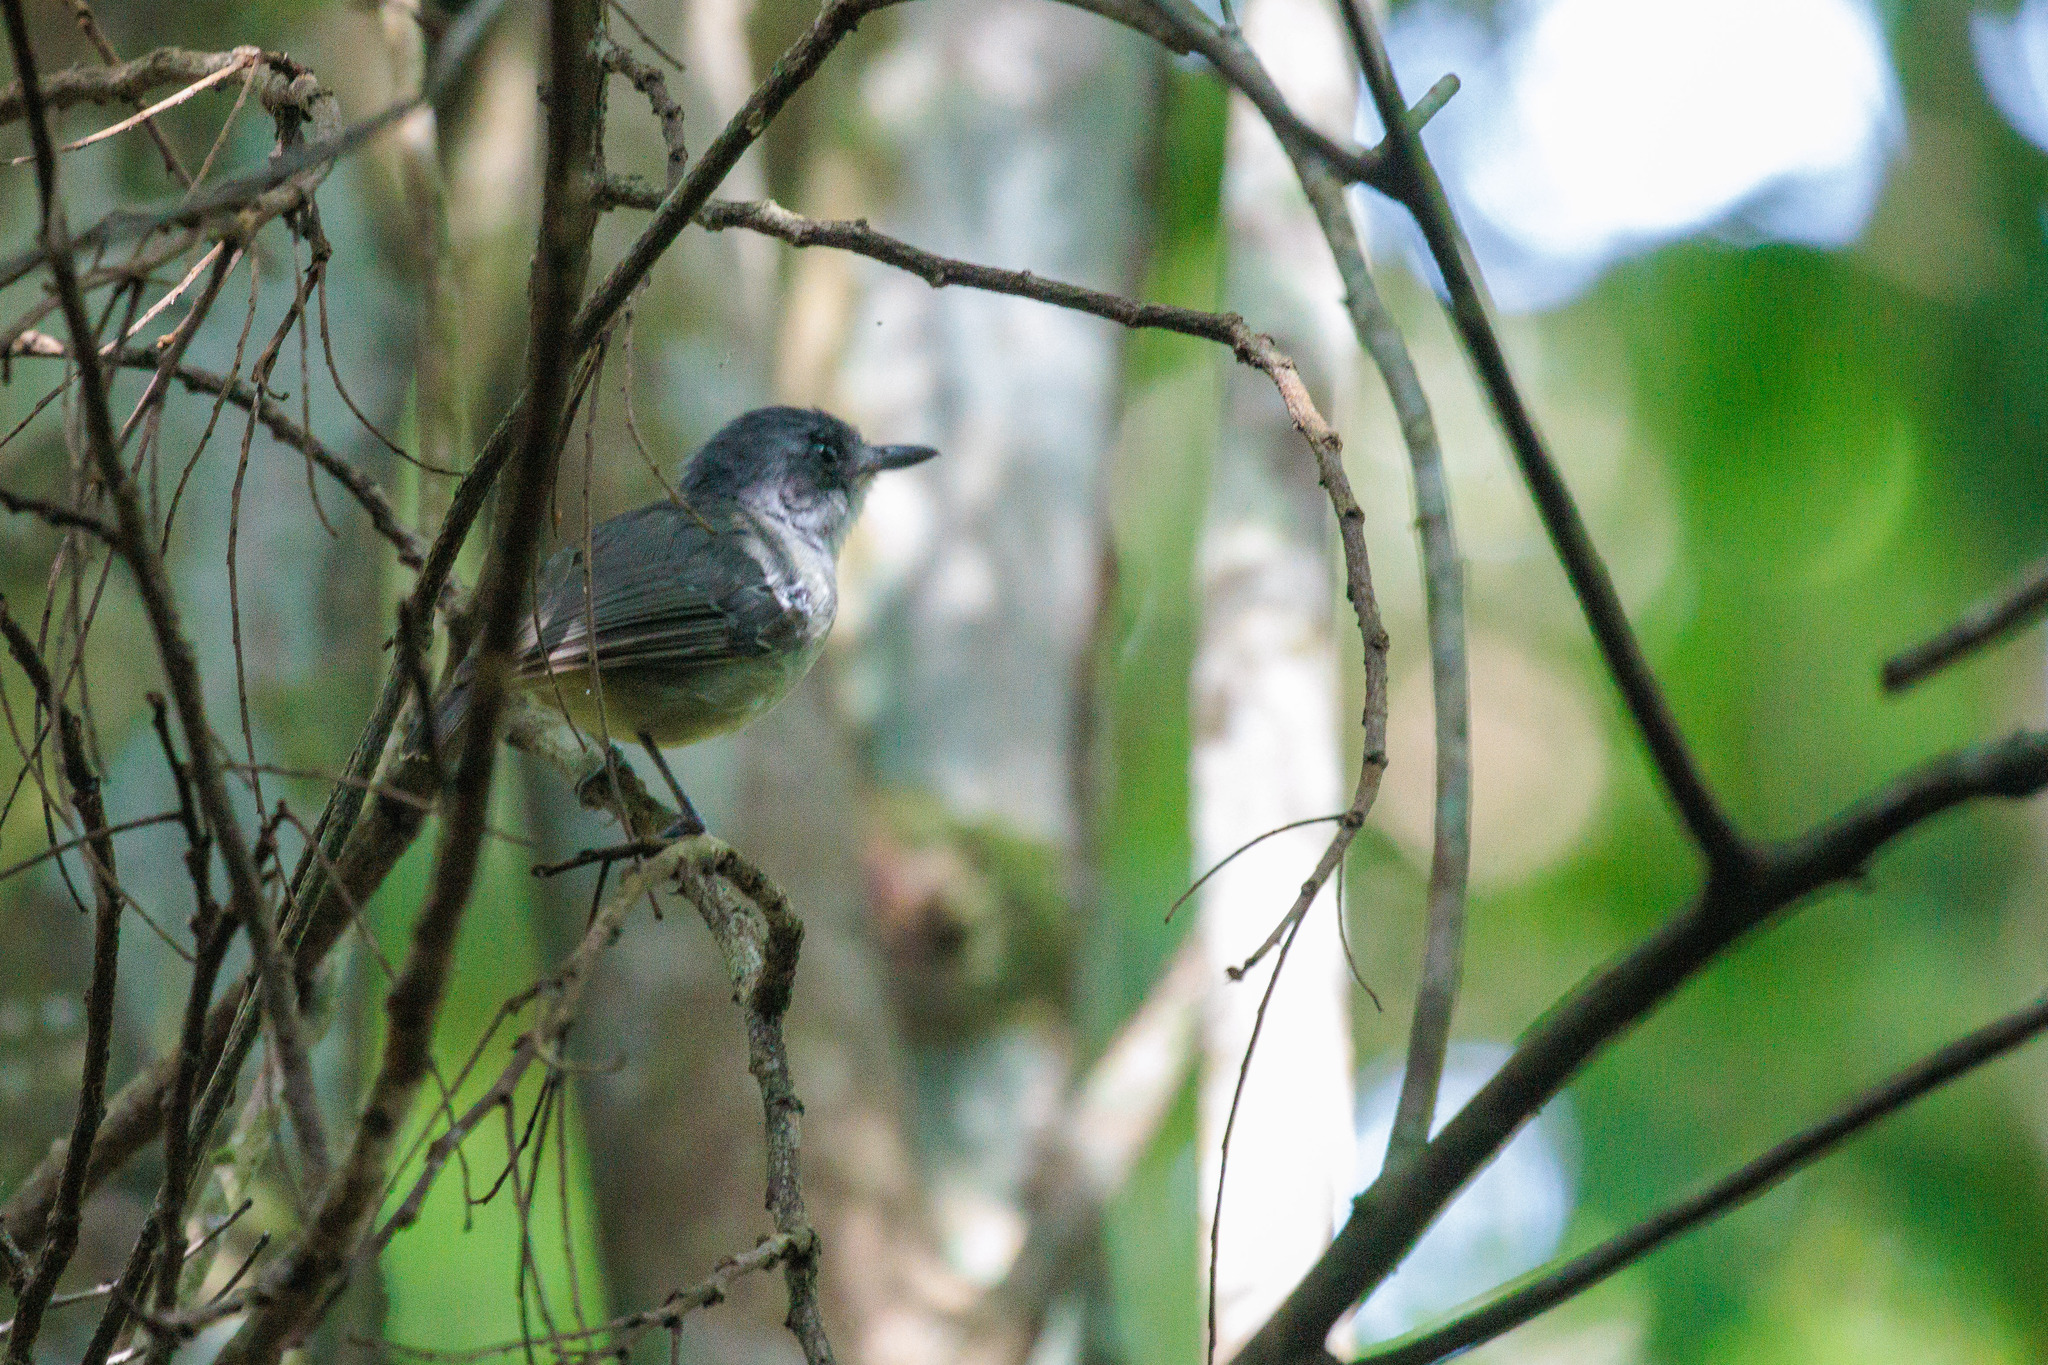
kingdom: Animalia
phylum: Chordata
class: Aves
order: Passeriformes
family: Thamnophilidae
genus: Dysithamnus
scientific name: Dysithamnus mentalis
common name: Plain antvireo
